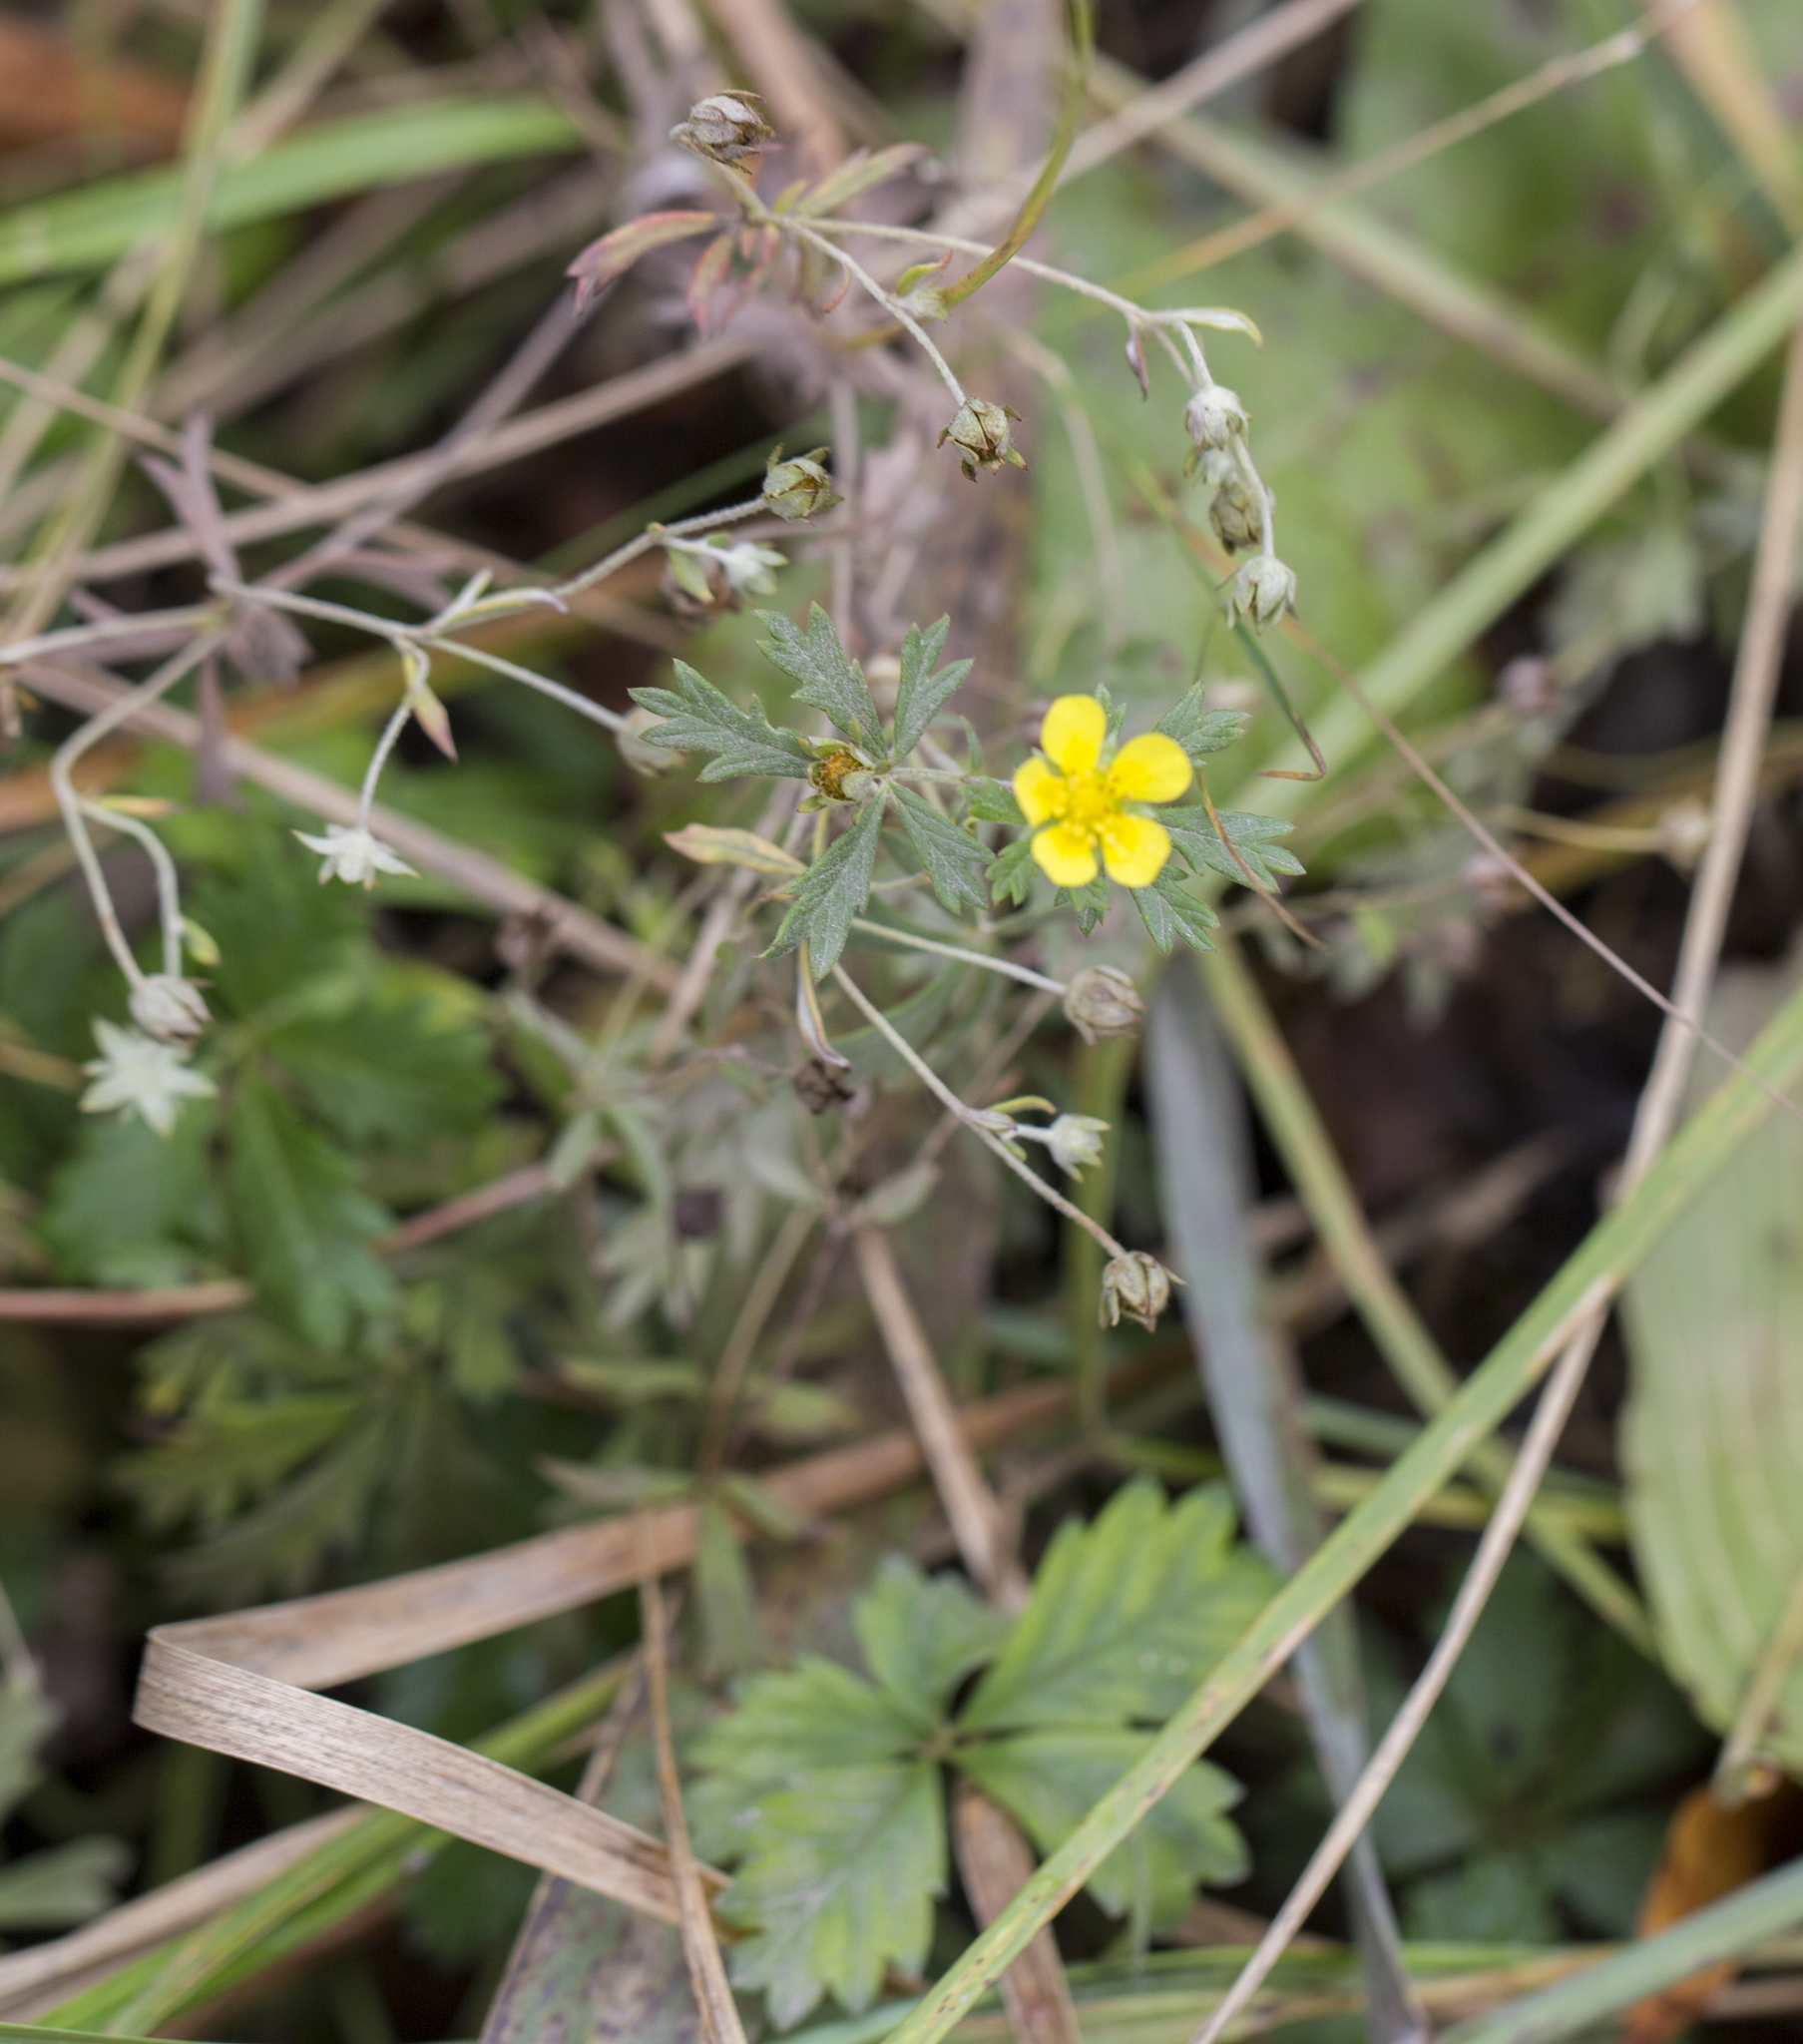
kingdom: Plantae
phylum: Tracheophyta
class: Magnoliopsida
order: Rosales
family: Rosaceae
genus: Potentilla
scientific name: Potentilla argentea
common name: Hoary cinquefoil
